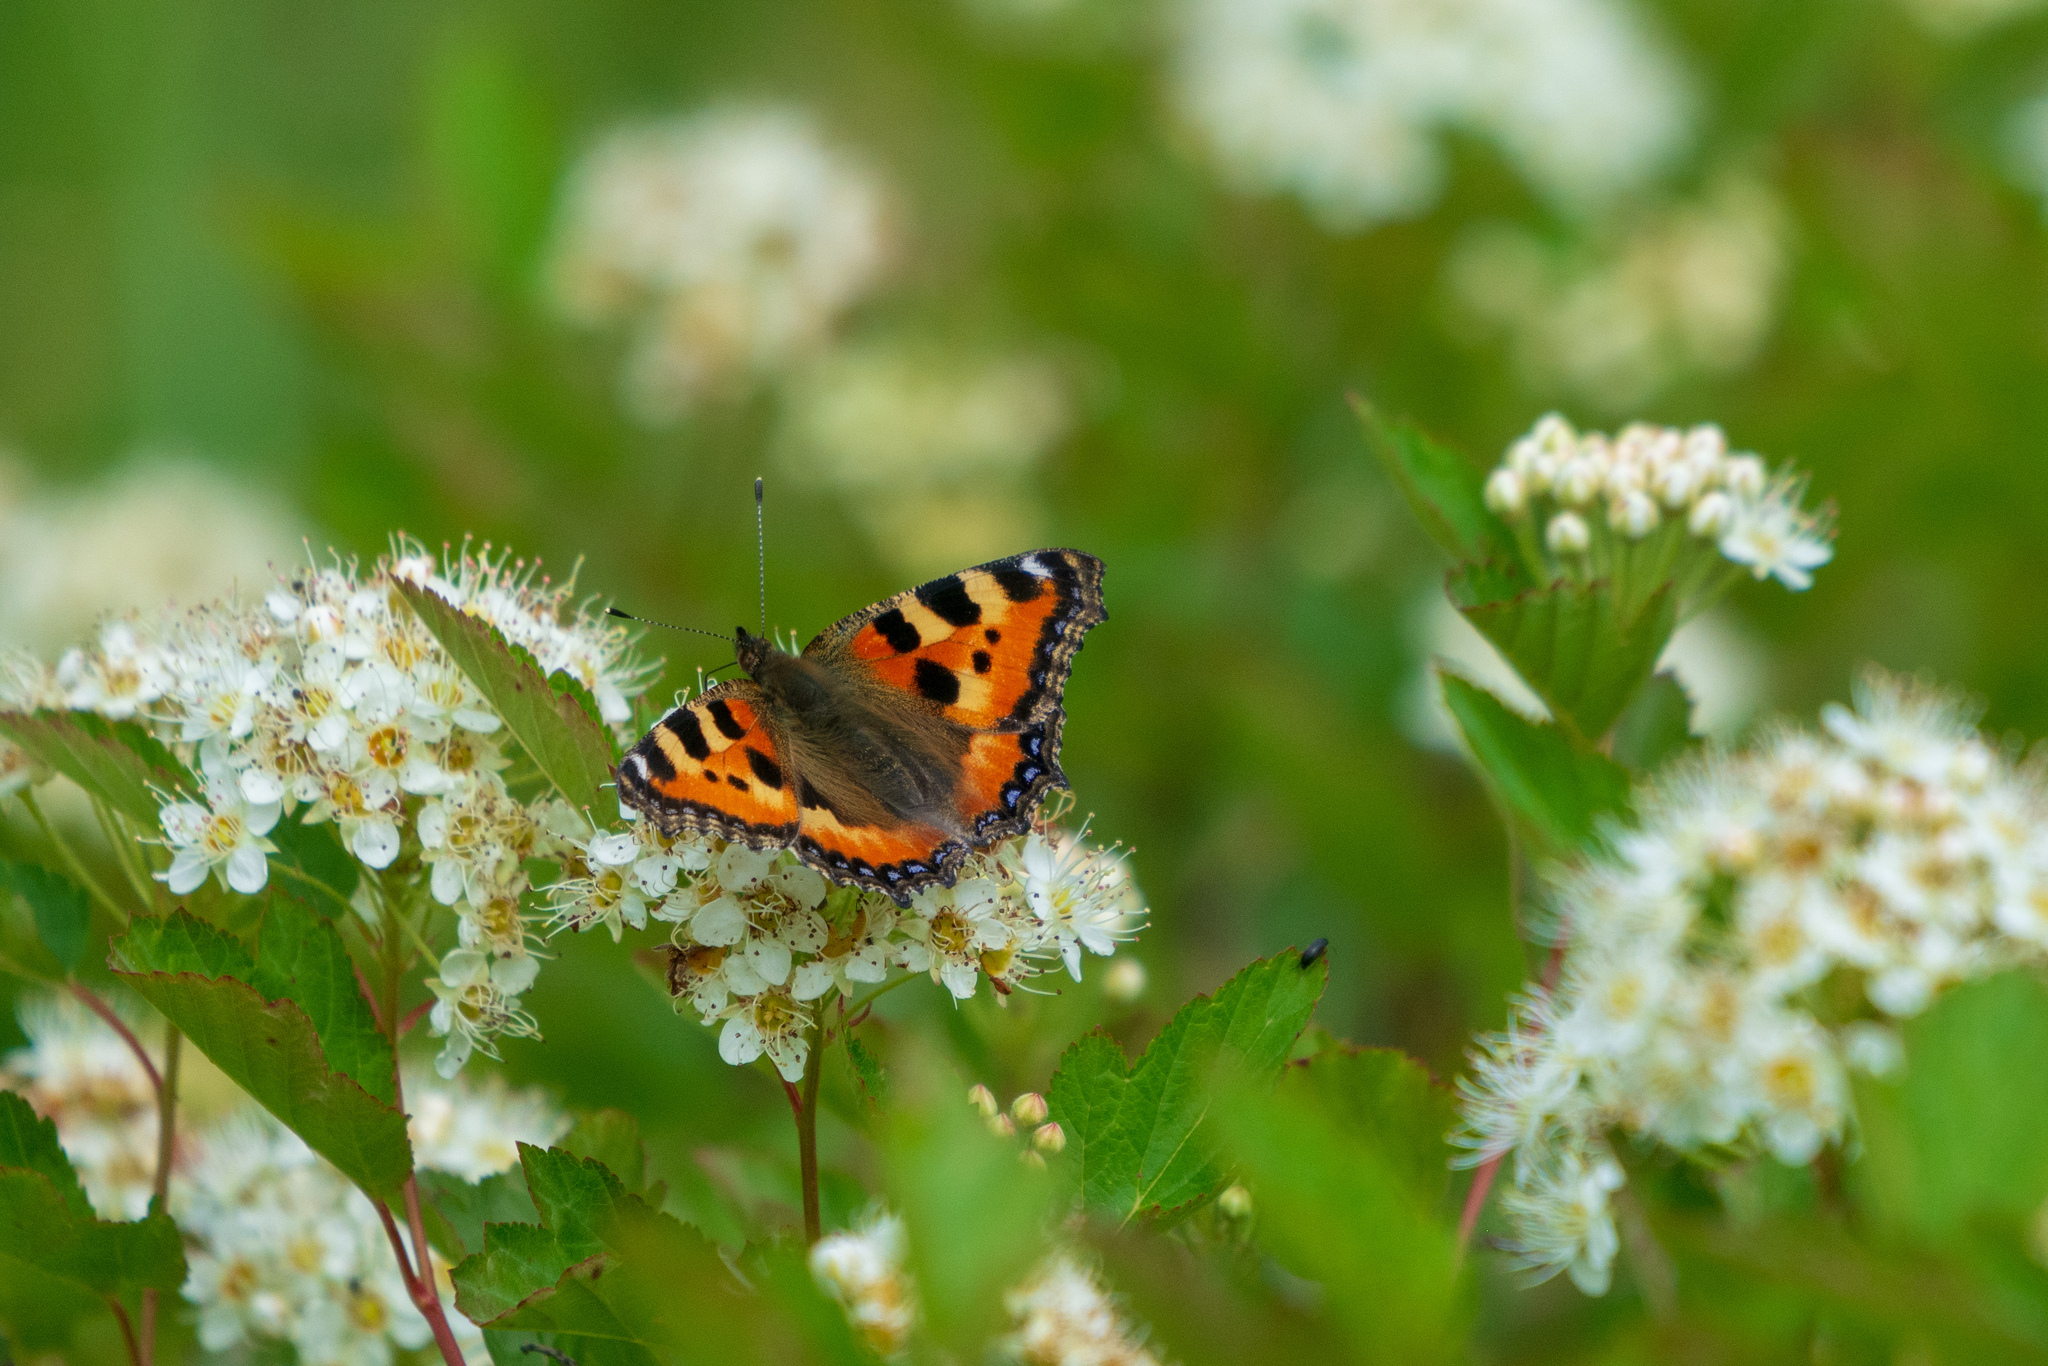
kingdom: Animalia
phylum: Arthropoda
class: Insecta
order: Lepidoptera
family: Nymphalidae
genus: Aglais
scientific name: Aglais urticae
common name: Small tortoiseshell
